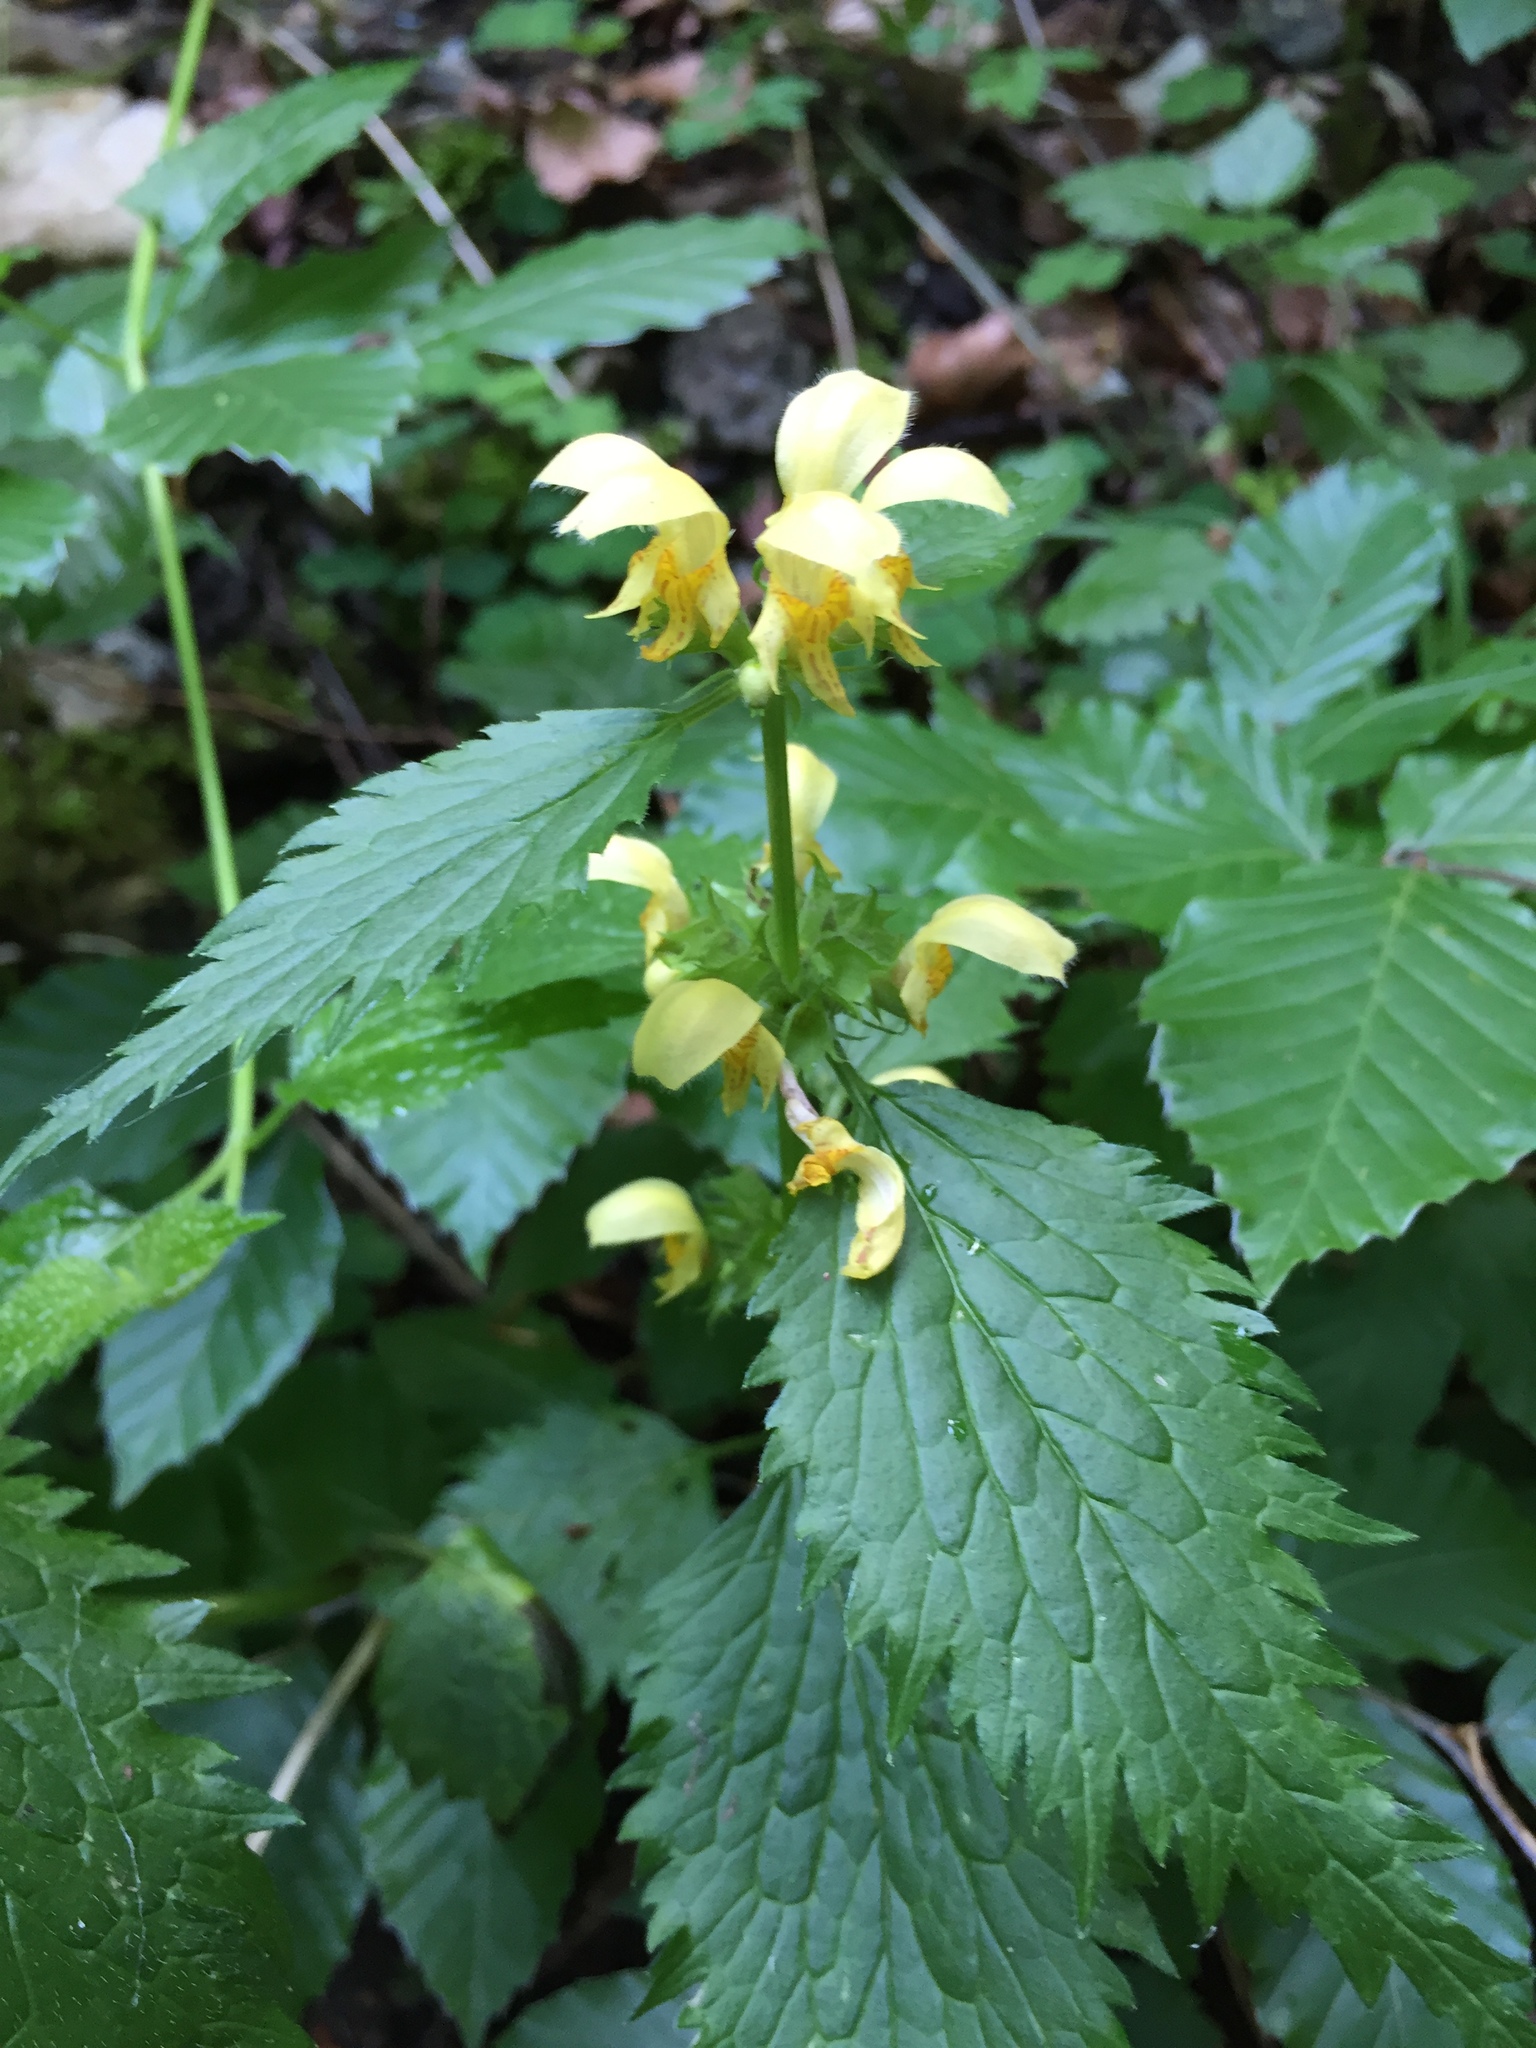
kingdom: Plantae
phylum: Tracheophyta
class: Magnoliopsida
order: Lamiales
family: Lamiaceae
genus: Lamium
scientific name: Lamium galeobdolon
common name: Yellow archangel
